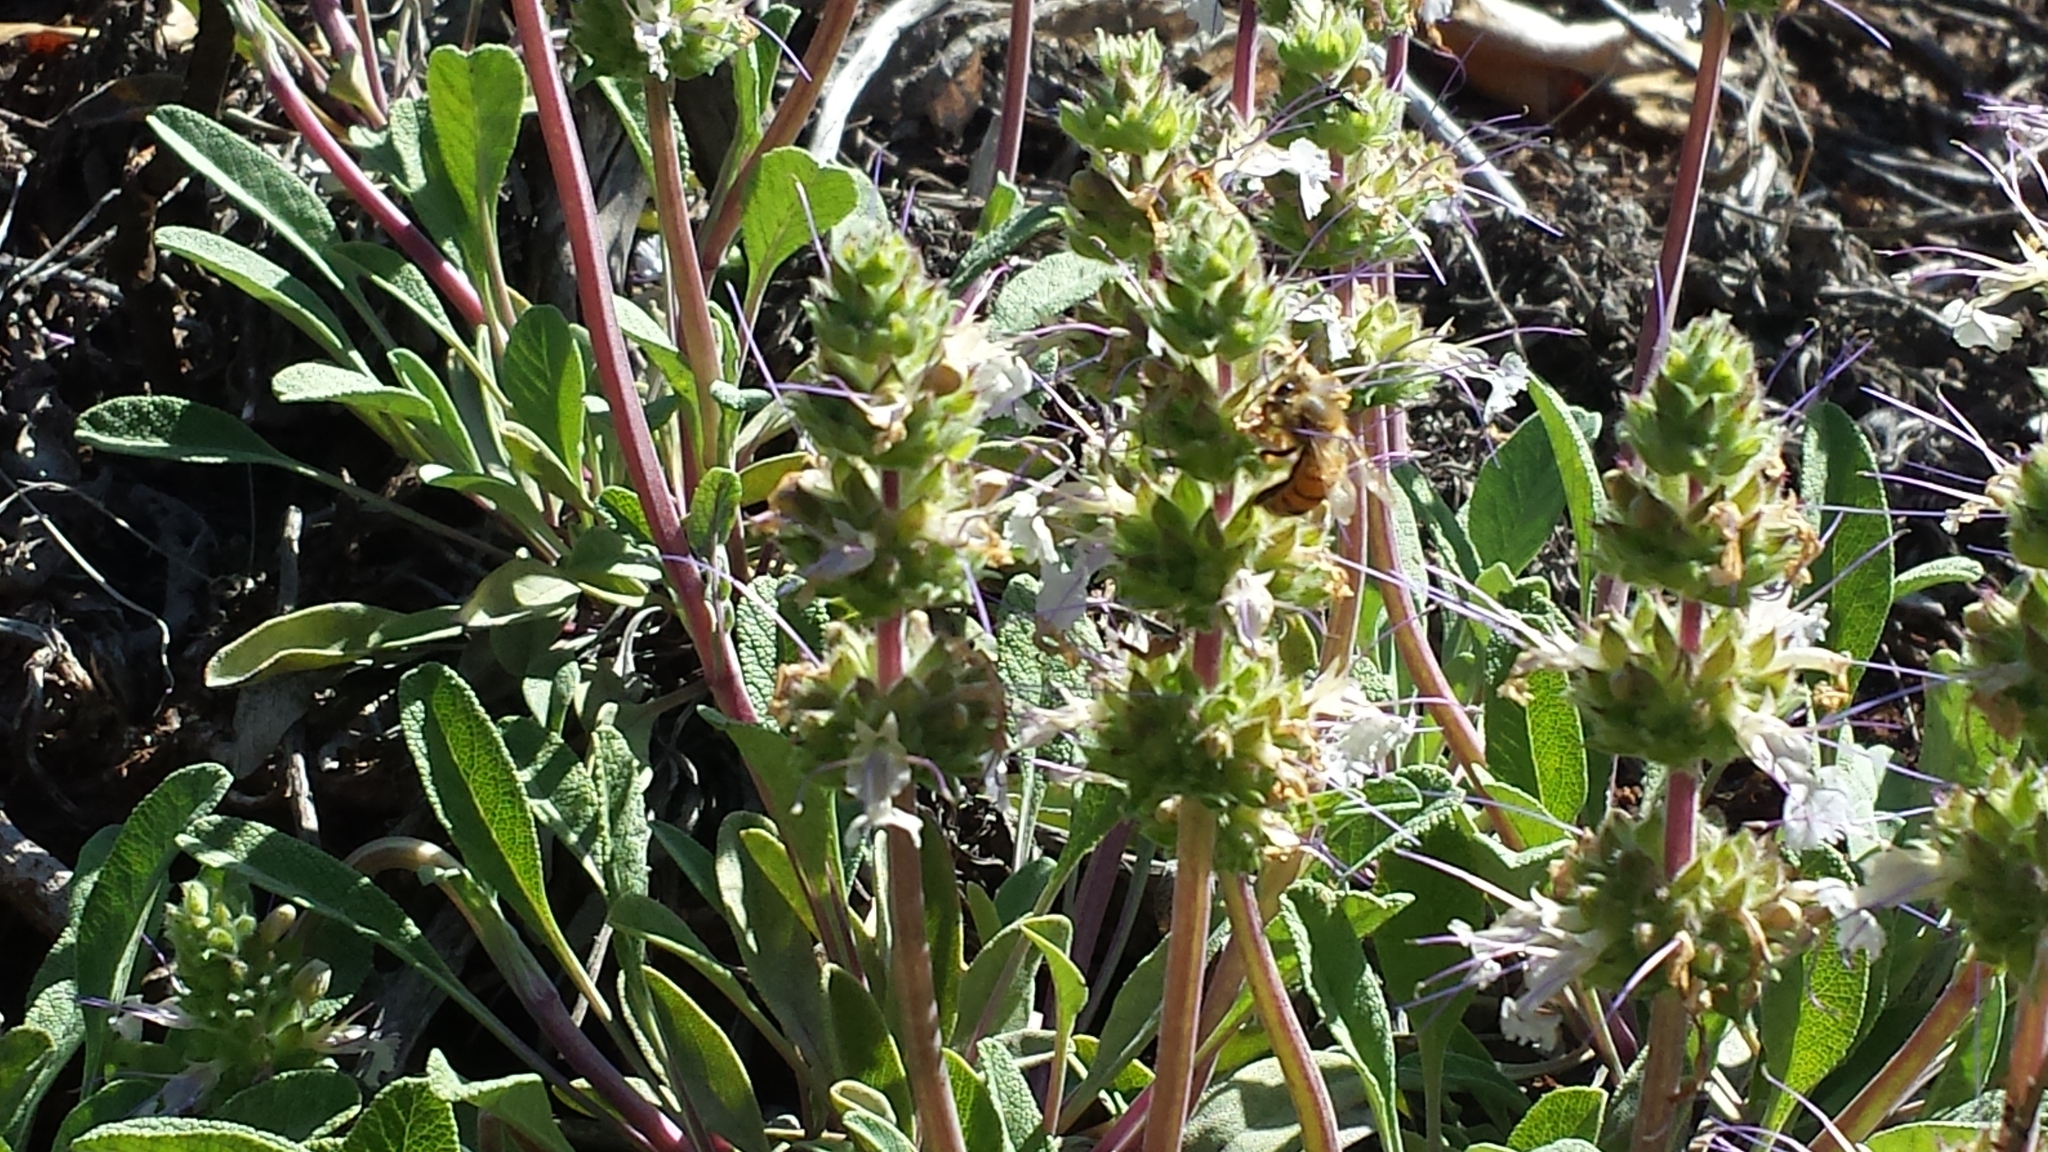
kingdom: Plantae
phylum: Tracheophyta
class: Magnoliopsida
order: Lamiales
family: Lamiaceae
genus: Salvia
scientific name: Salvia sonomensis
